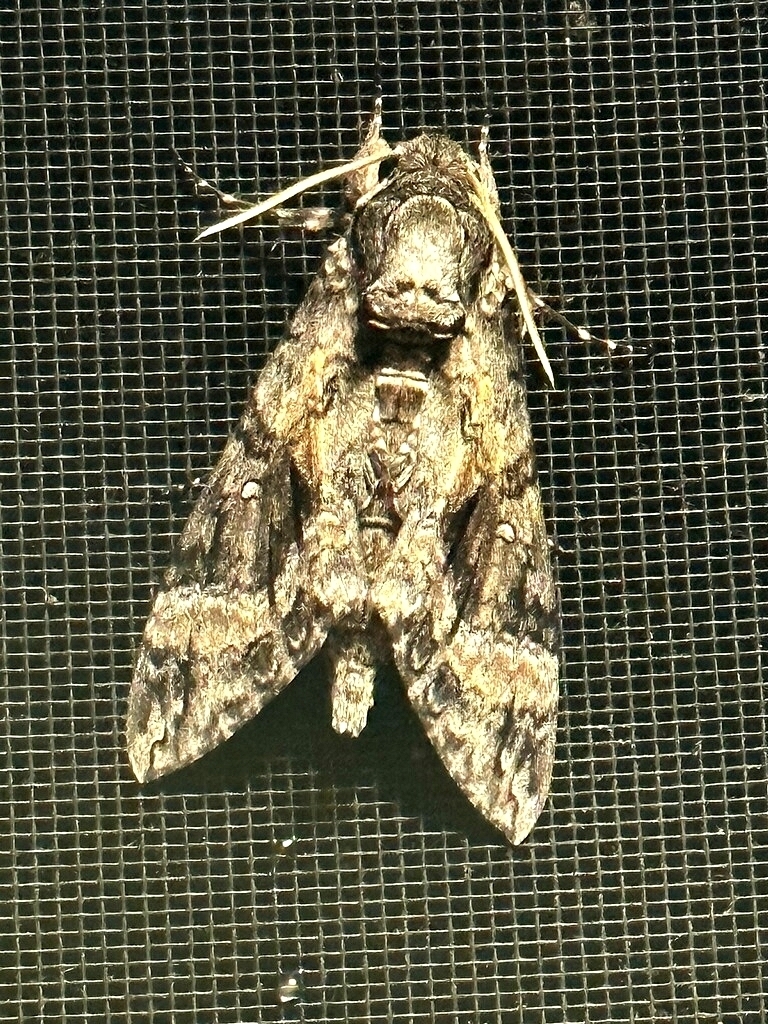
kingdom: Animalia
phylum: Arthropoda
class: Insecta
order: Lepidoptera
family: Sphingidae
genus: Agrius
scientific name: Agrius cingulata
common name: Pink-spotted hawkmoth
